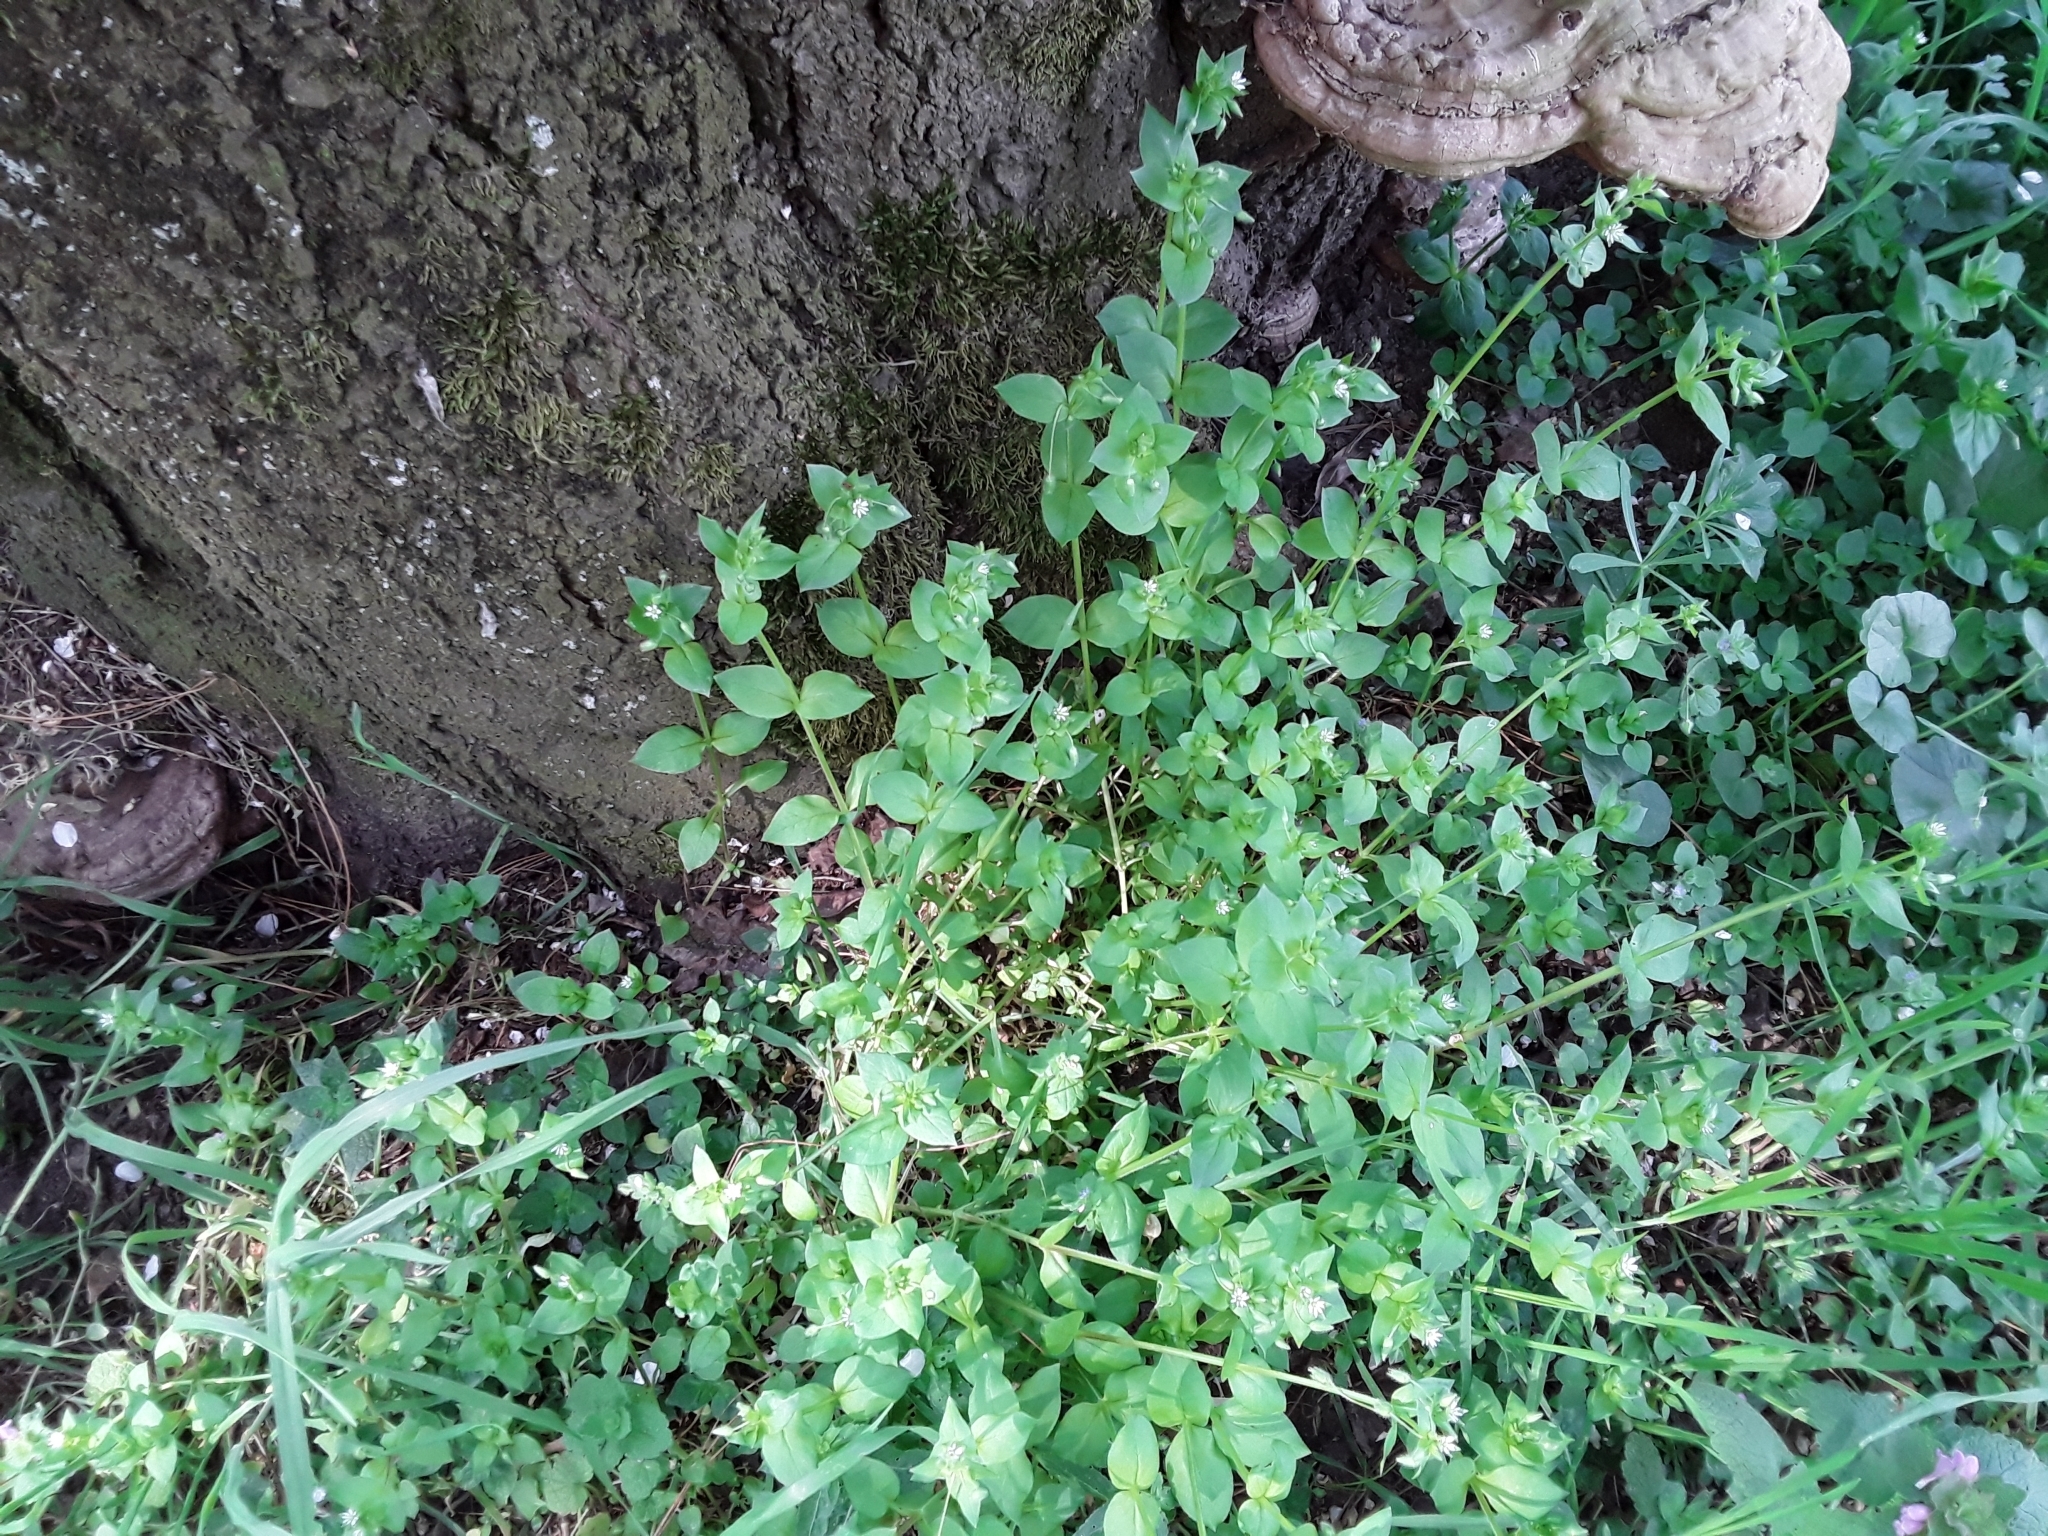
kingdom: Plantae
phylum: Tracheophyta
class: Magnoliopsida
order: Caryophyllales
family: Caryophyllaceae
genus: Stellaria
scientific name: Stellaria media
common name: Common chickweed
